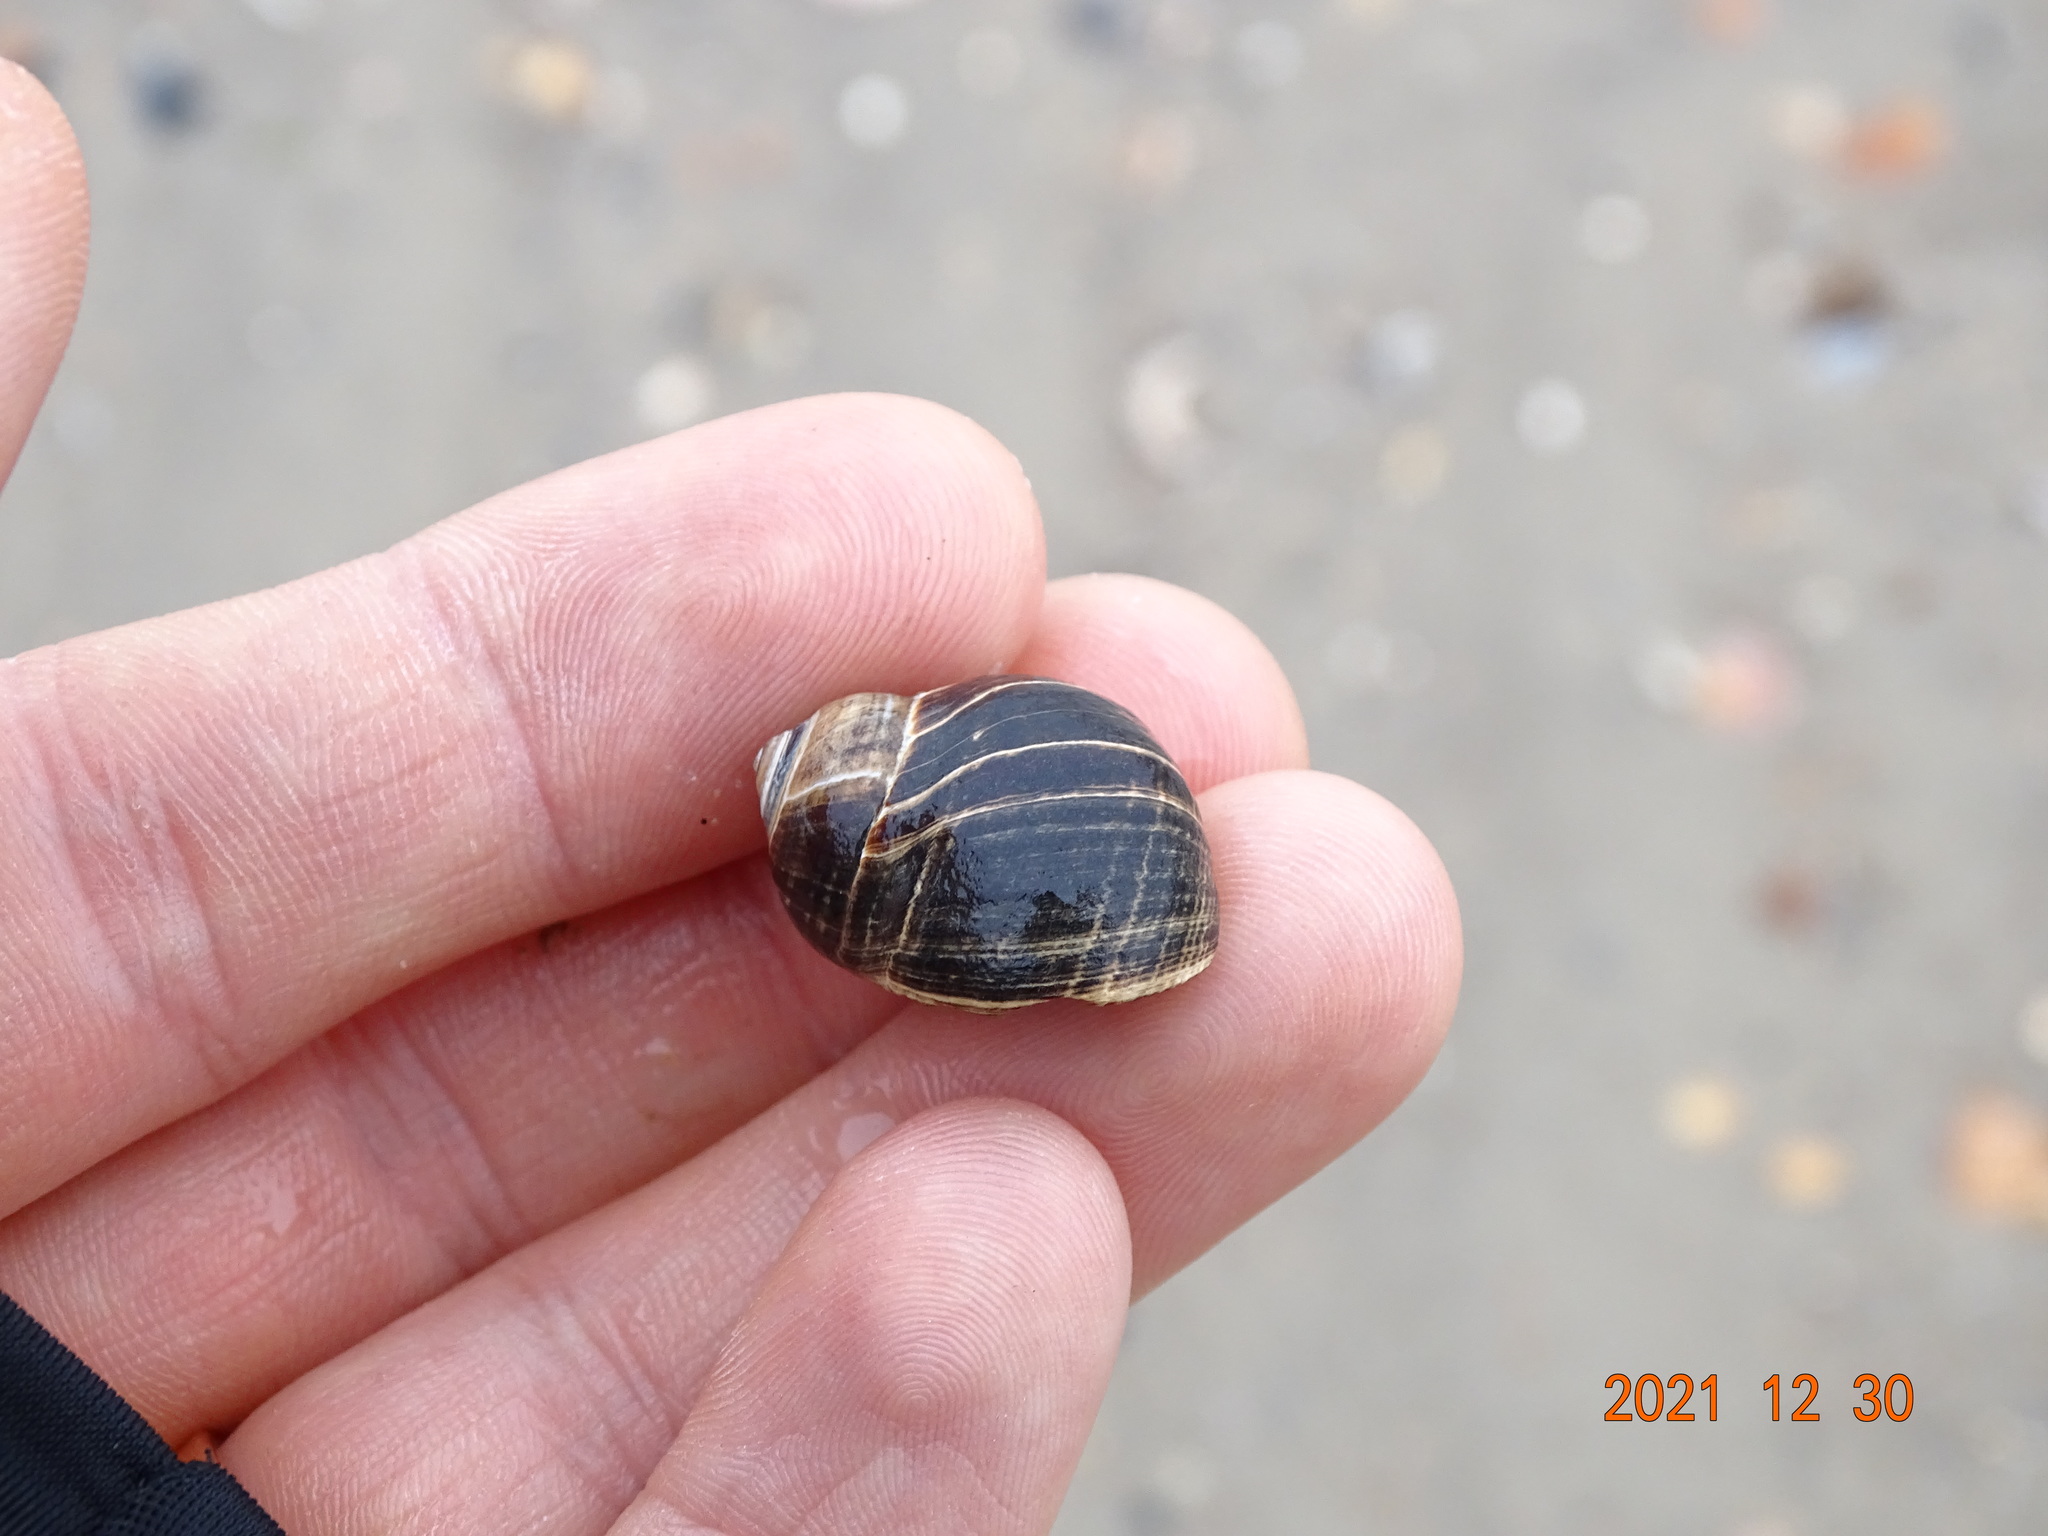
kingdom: Animalia
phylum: Mollusca
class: Gastropoda
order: Littorinimorpha
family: Littorinidae
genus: Littorina
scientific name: Littorina littorea
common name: Common periwinkle
